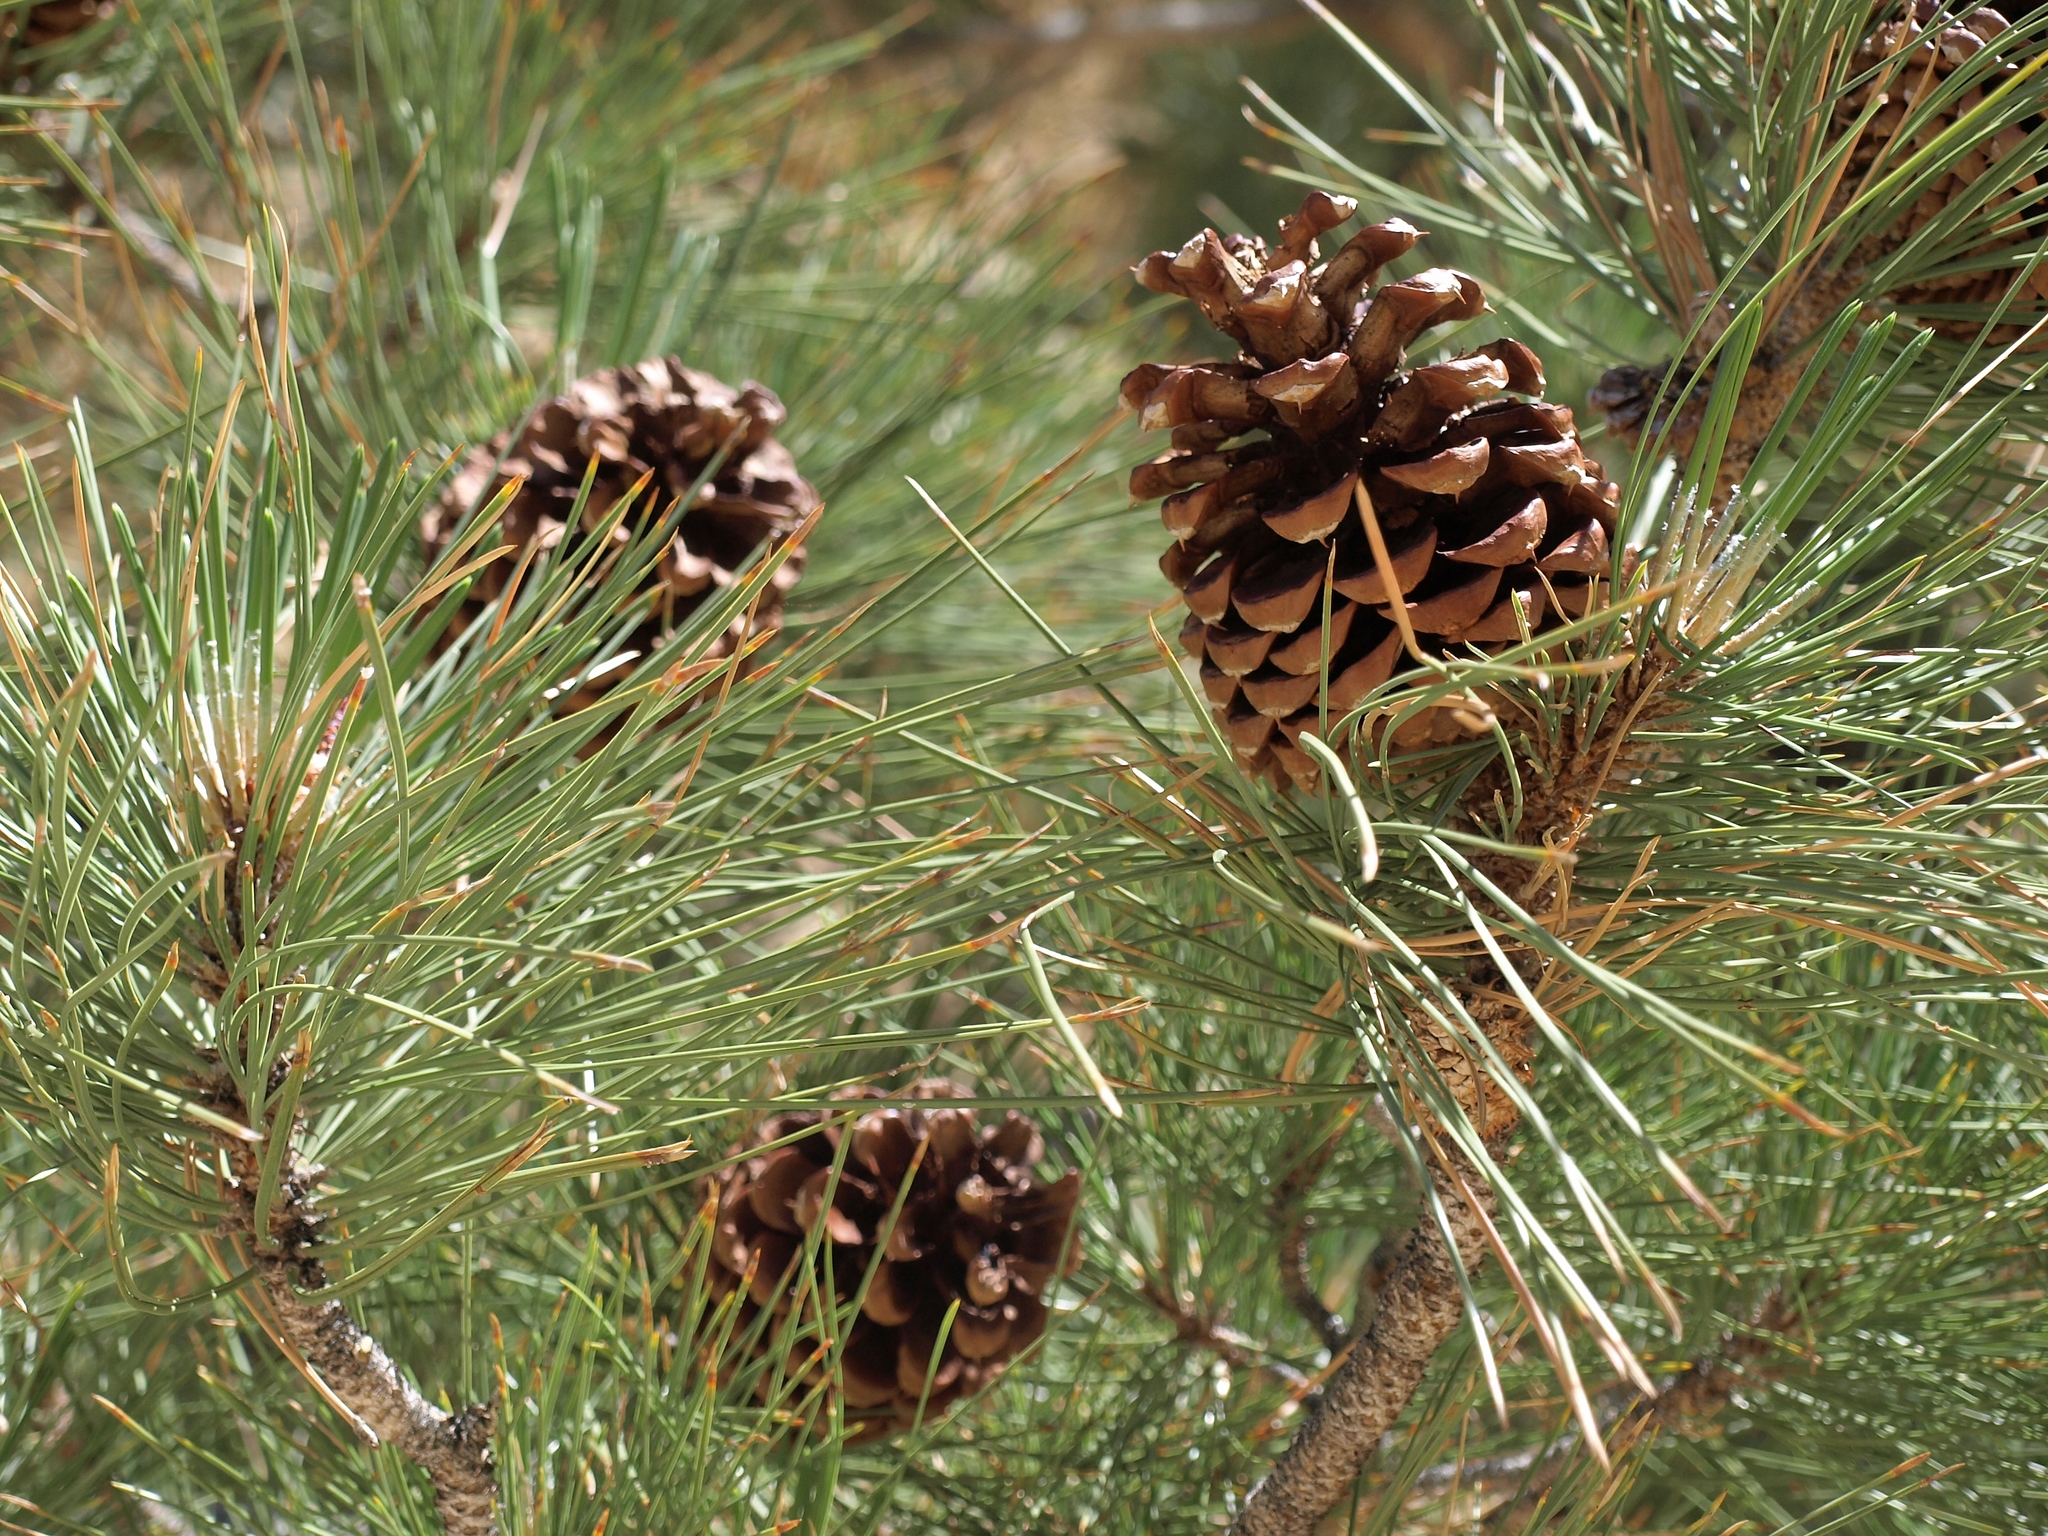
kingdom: Plantae
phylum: Tracheophyta
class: Pinopsida
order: Pinales
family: Pinaceae
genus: Pinus
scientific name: Pinus jeffreyi
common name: Jeffrey pine
